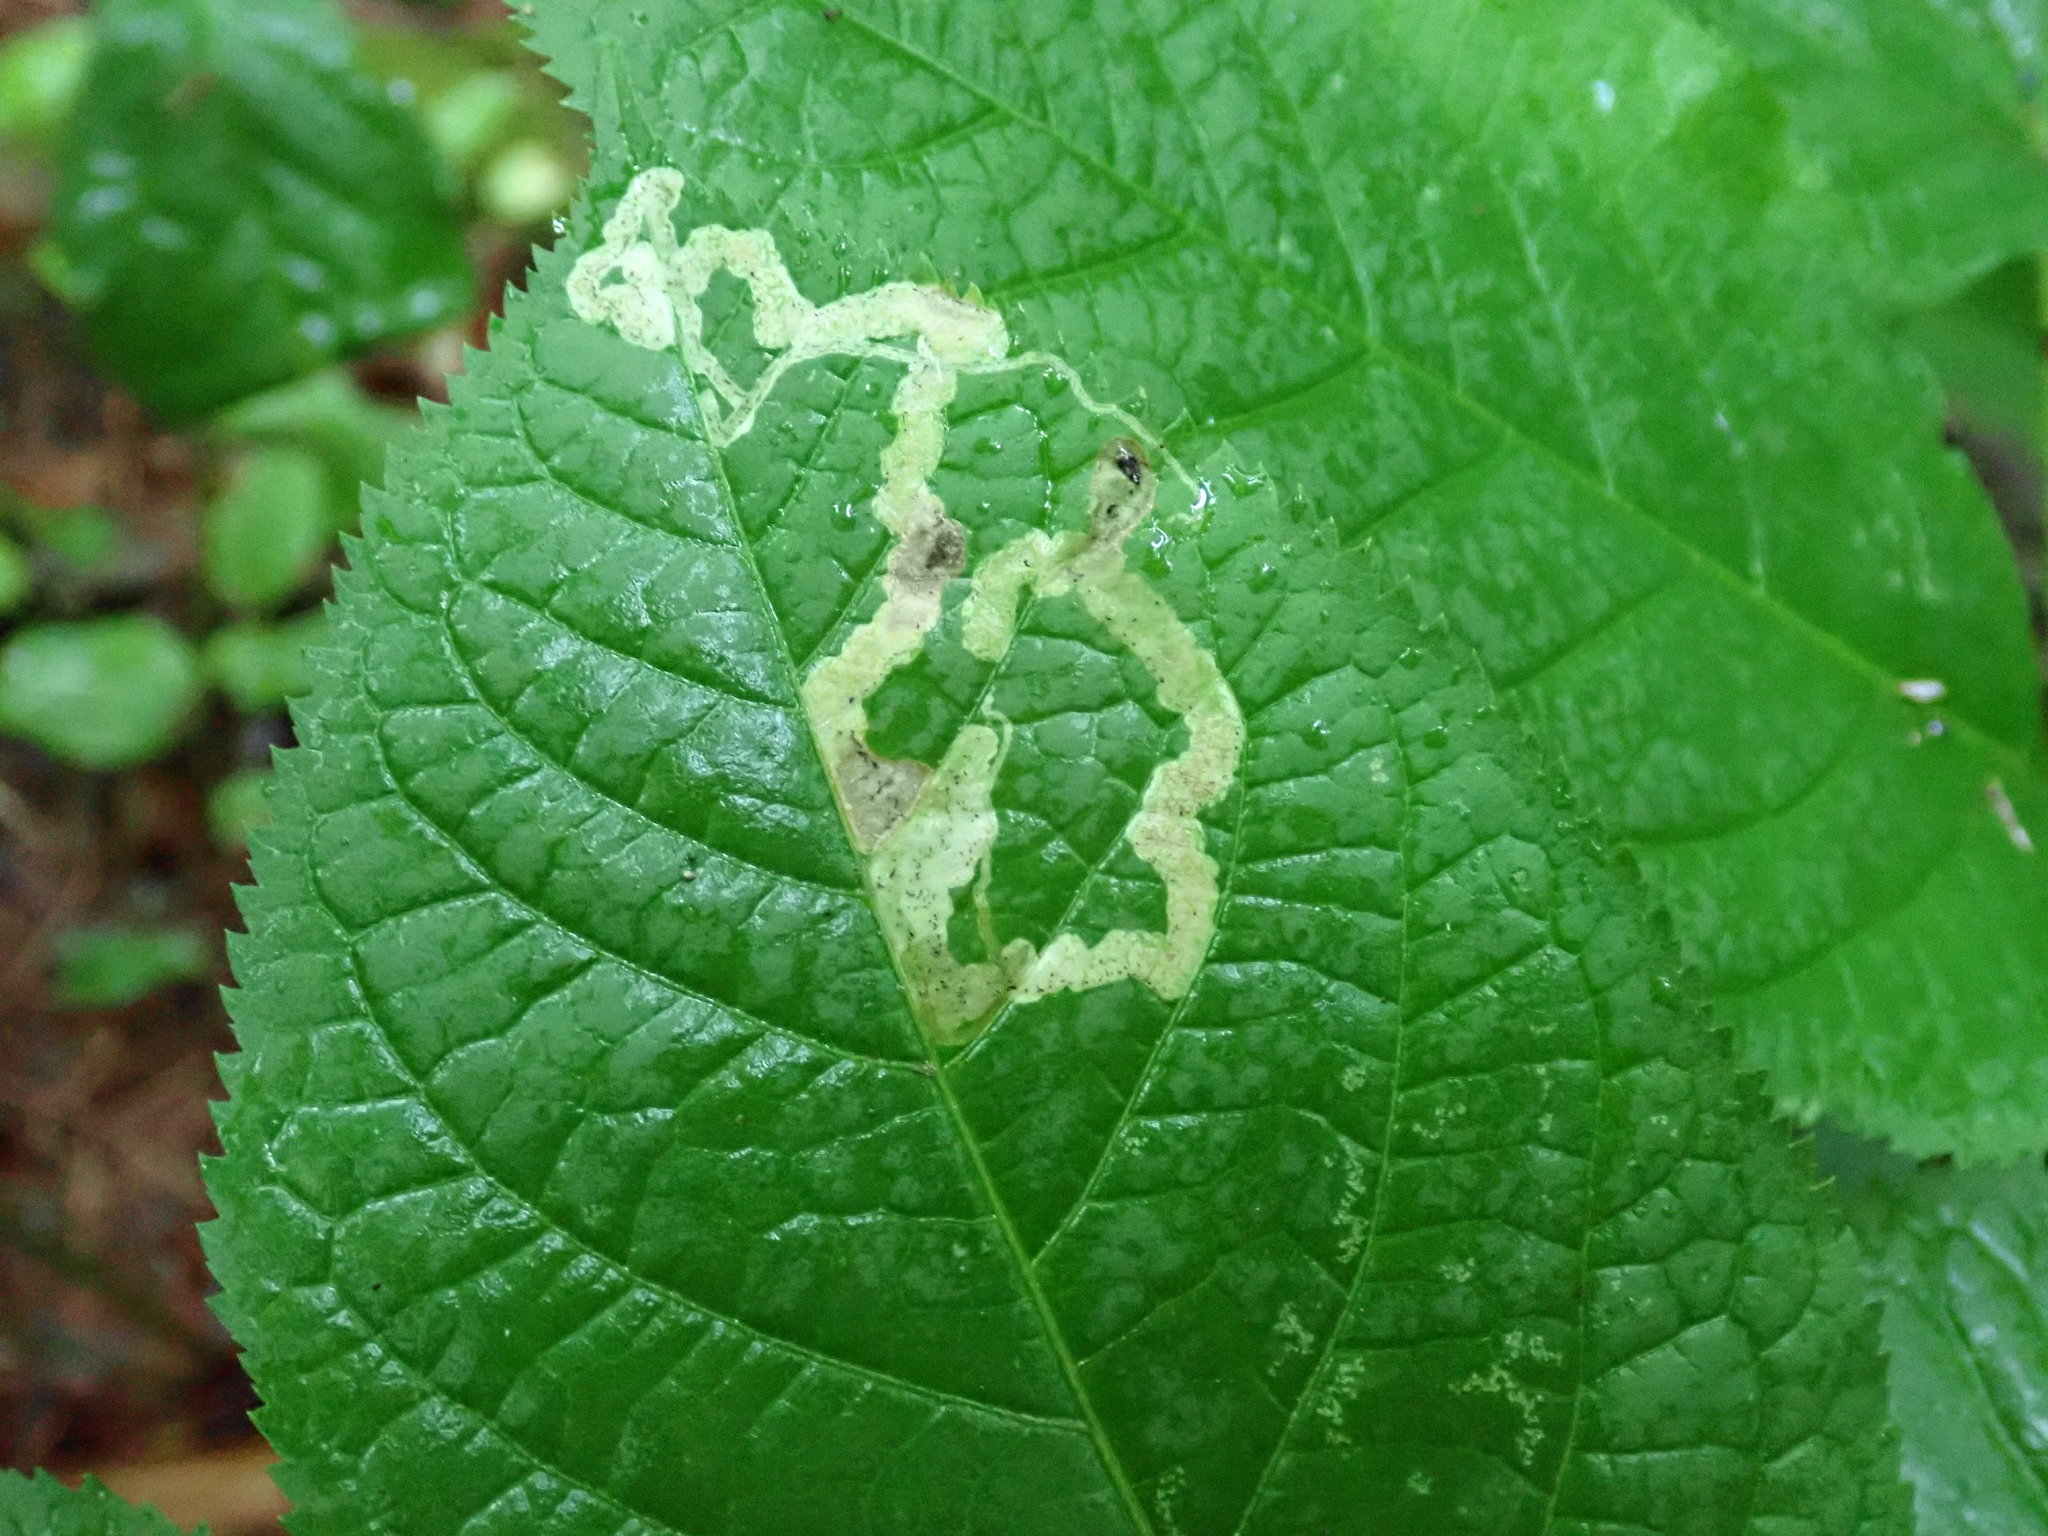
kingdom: Animalia
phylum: Arthropoda
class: Insecta
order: Diptera
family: Agromyzidae
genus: Phytomyza
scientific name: Phytomyza aralivora
